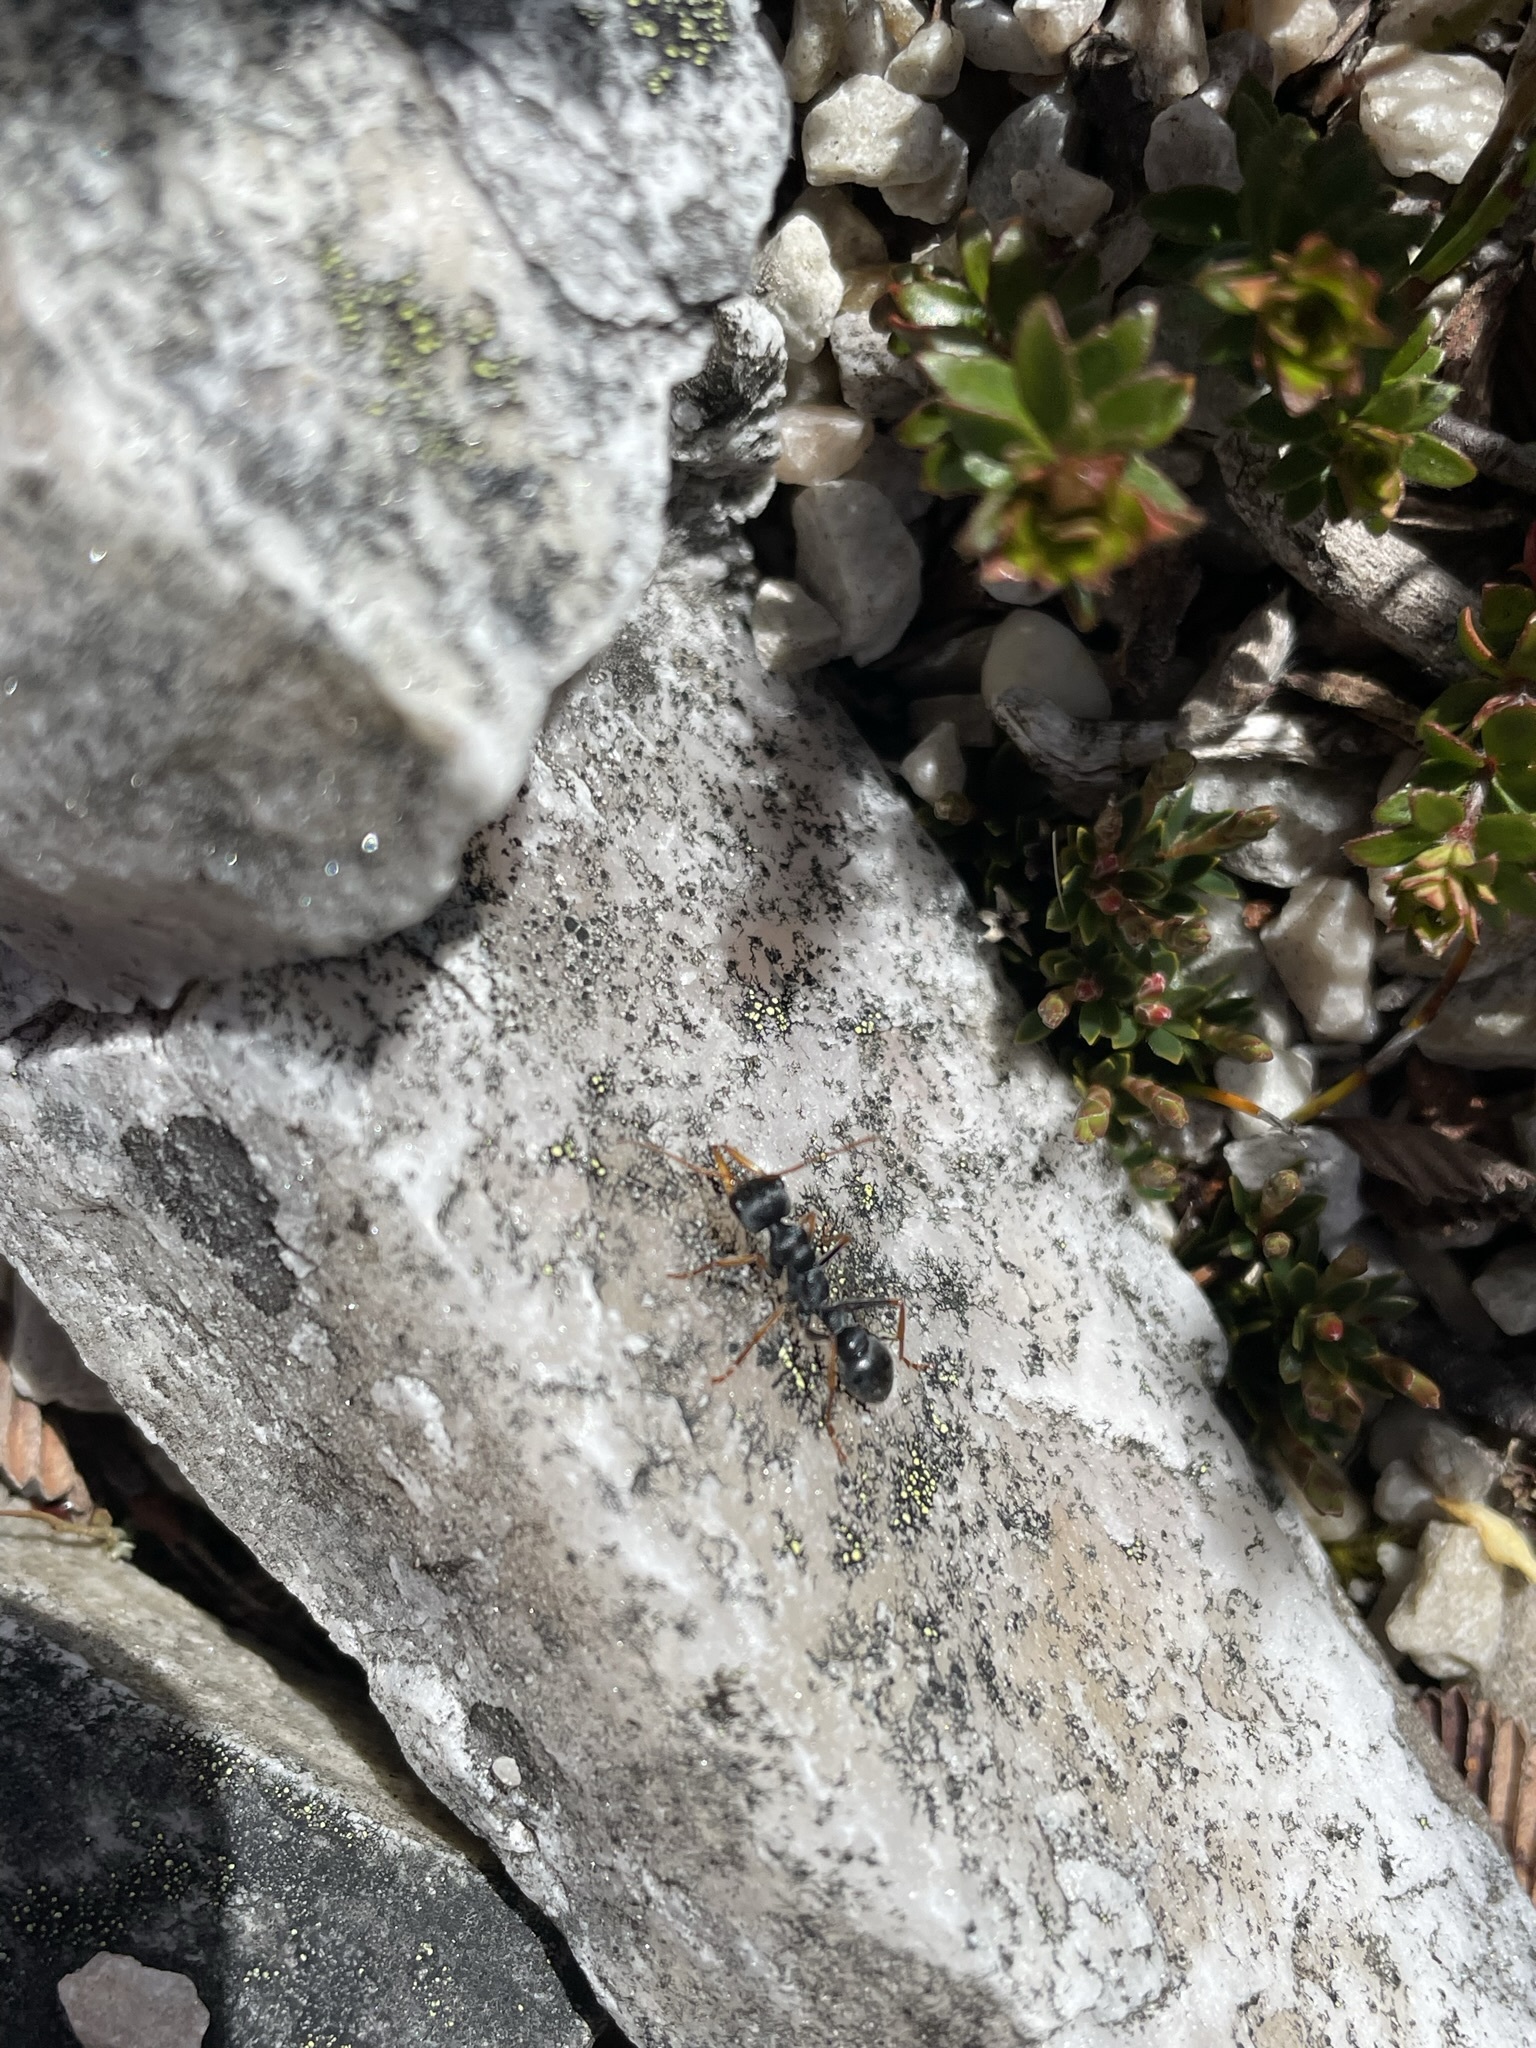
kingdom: Animalia
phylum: Arthropoda
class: Insecta
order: Hymenoptera
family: Formicidae
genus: Myrmecia
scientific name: Myrmecia pilosula
